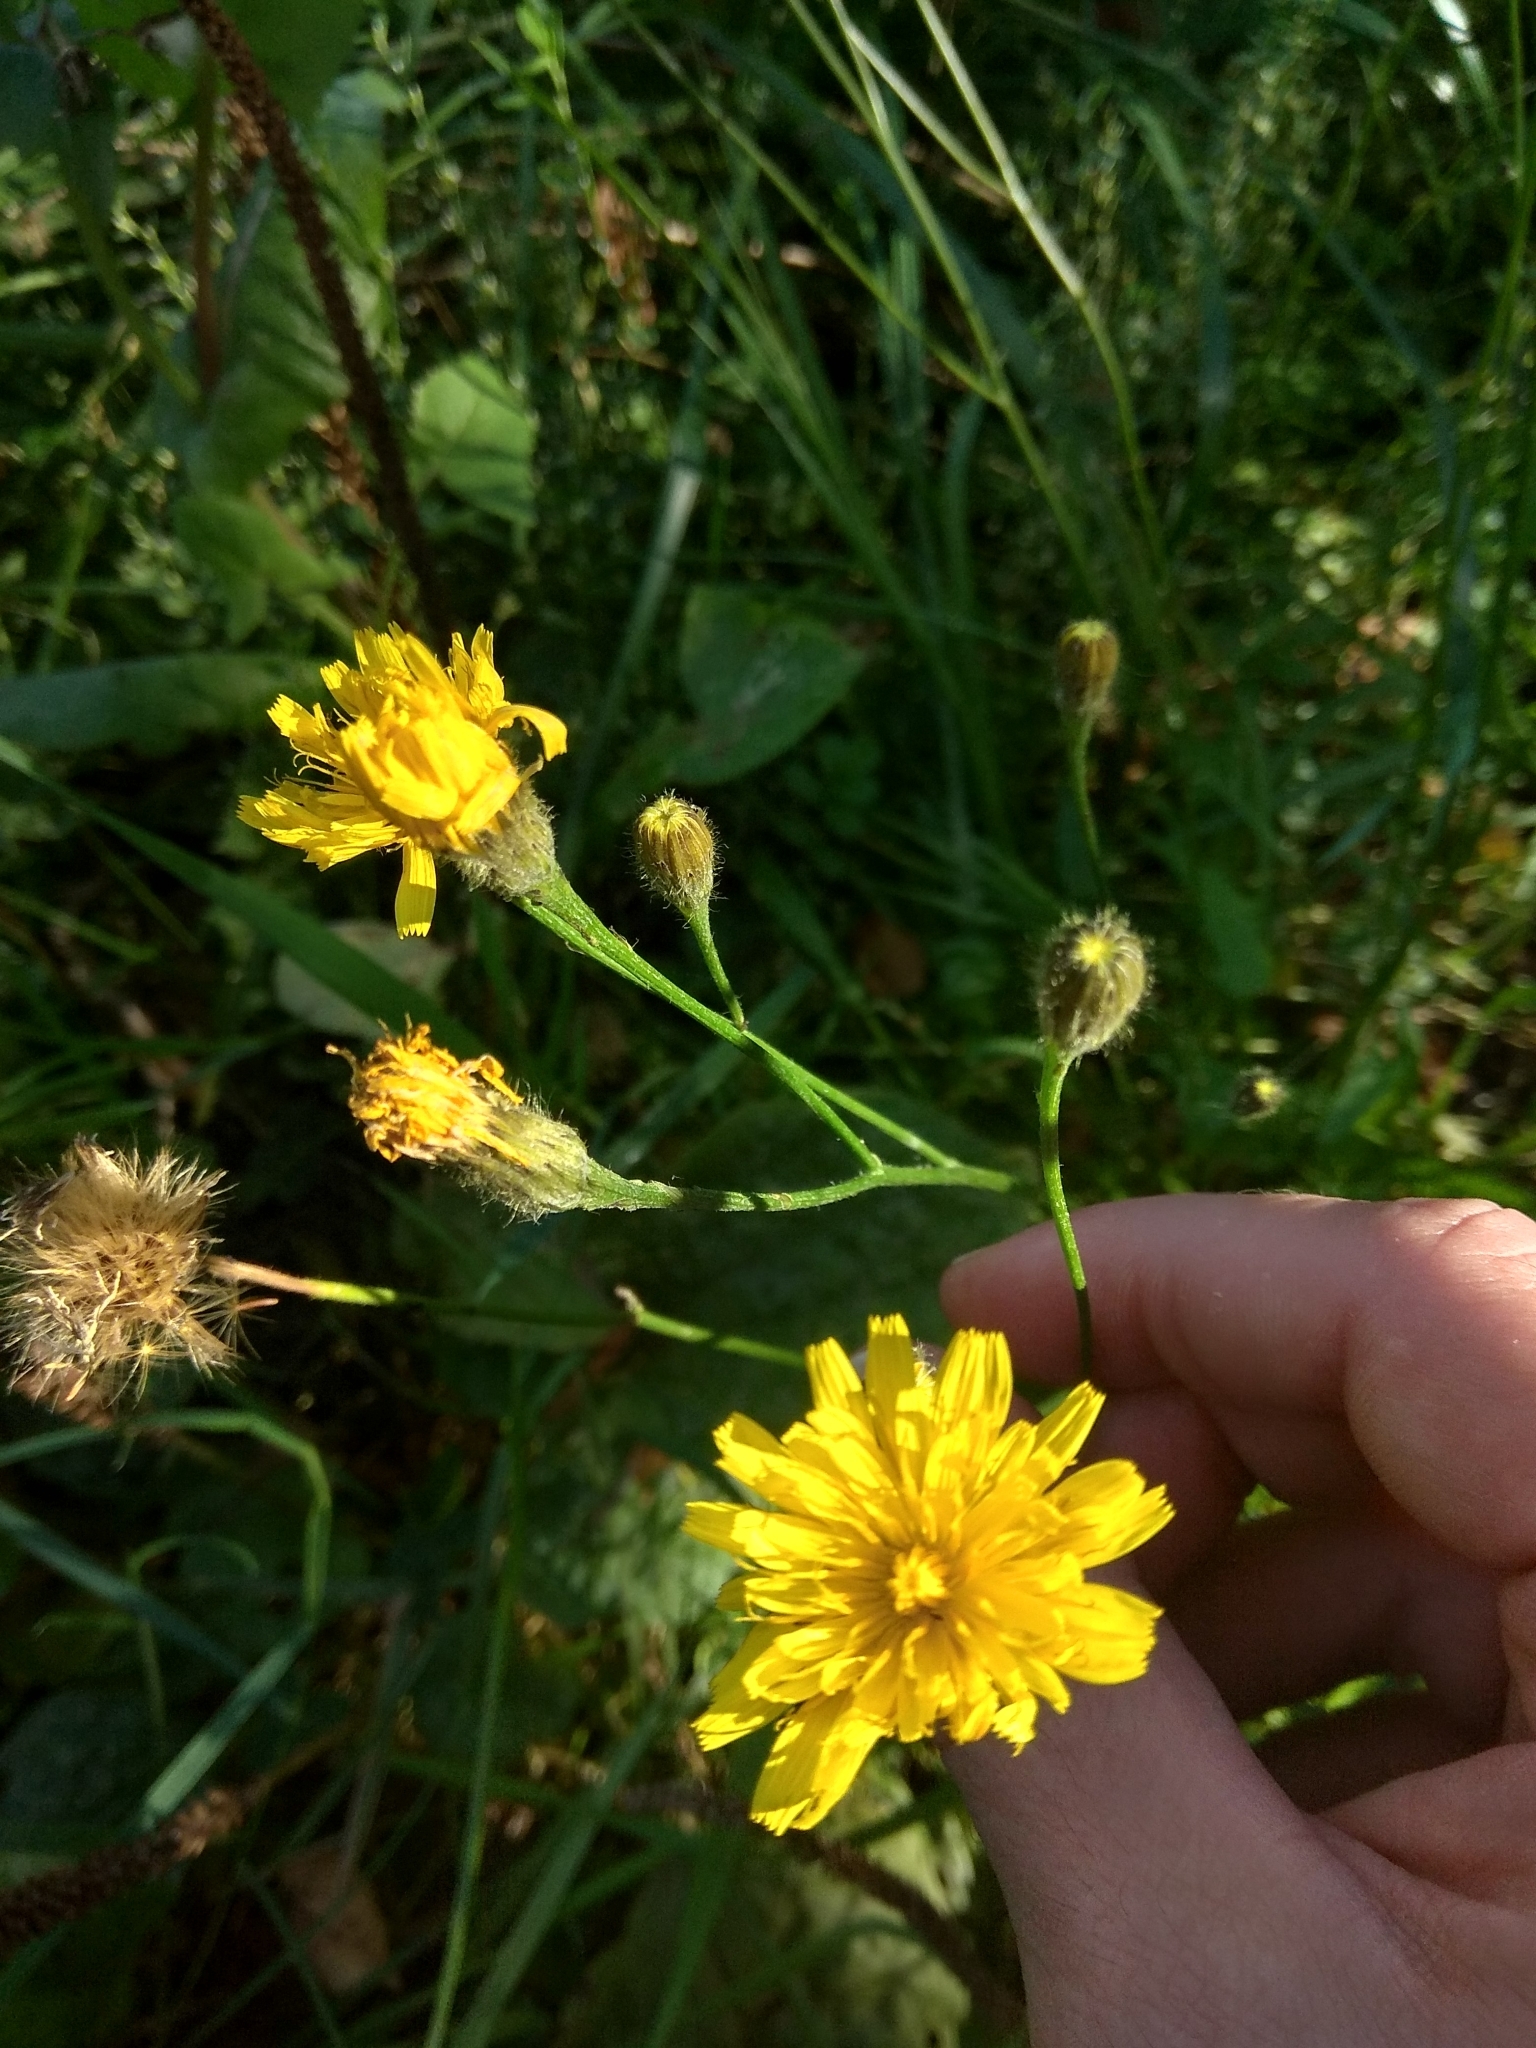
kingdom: Plantae
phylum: Tracheophyta
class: Magnoliopsida
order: Asterales
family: Asteraceae
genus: Scorzoneroides
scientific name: Scorzoneroides autumnalis
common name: Autumn hawkbit
